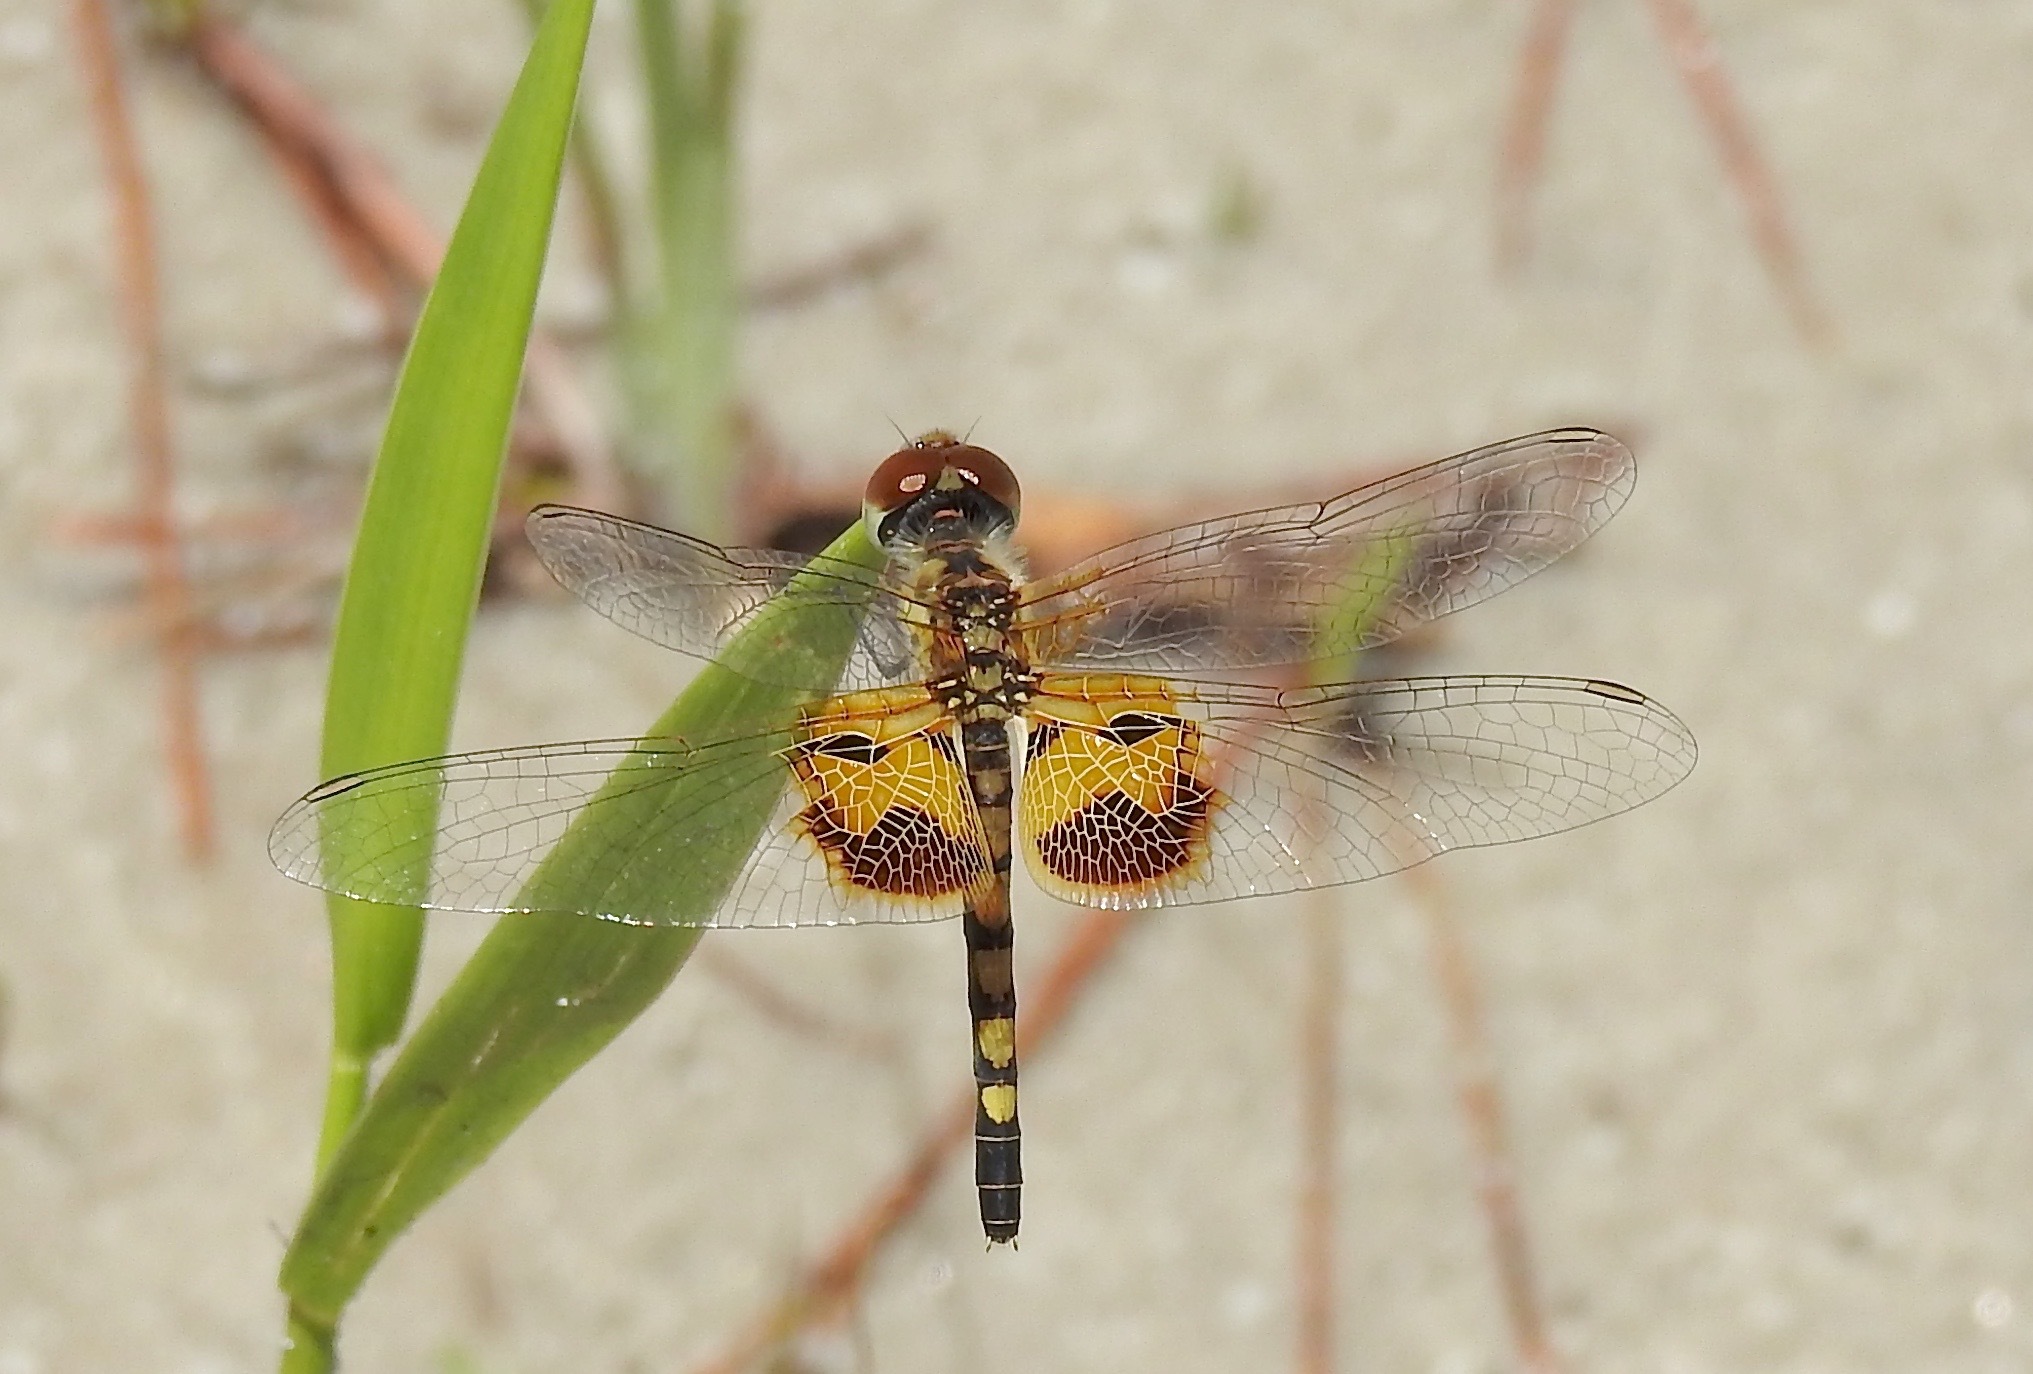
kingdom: Animalia
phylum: Arthropoda
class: Insecta
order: Odonata
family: Libellulidae
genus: Celithemis
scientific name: Celithemis amanda
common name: Amanda's pennant
